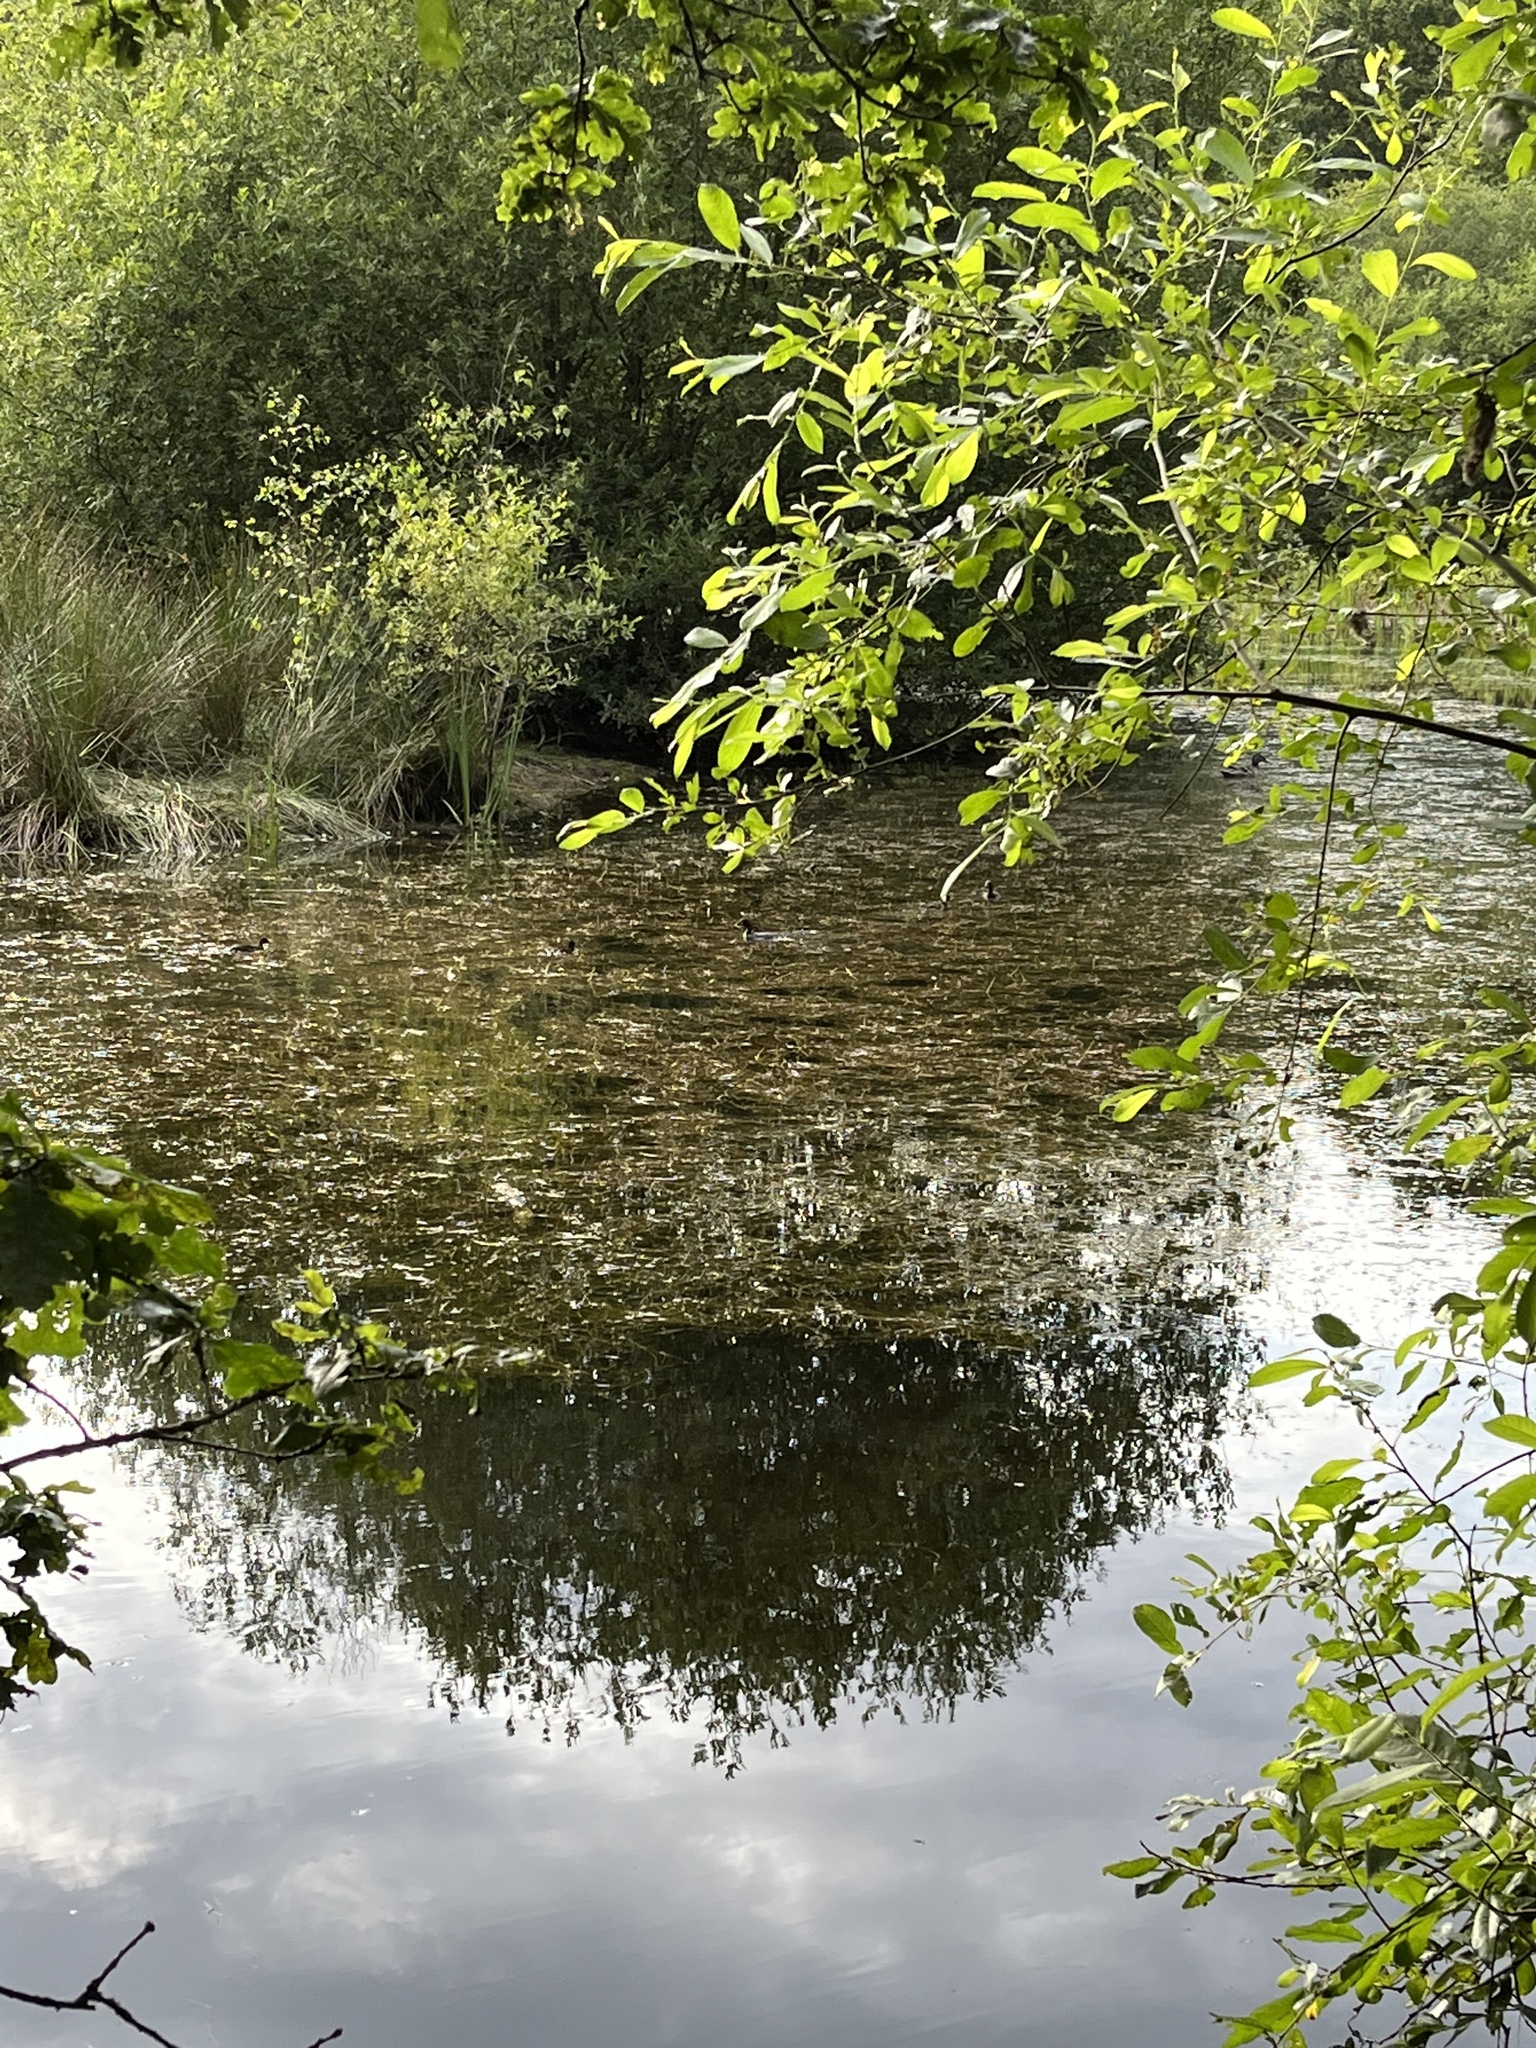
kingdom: Animalia
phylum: Chordata
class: Aves
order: Podicipediformes
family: Podicipedidae
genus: Tachybaptus
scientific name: Tachybaptus ruficollis
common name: Little grebe
